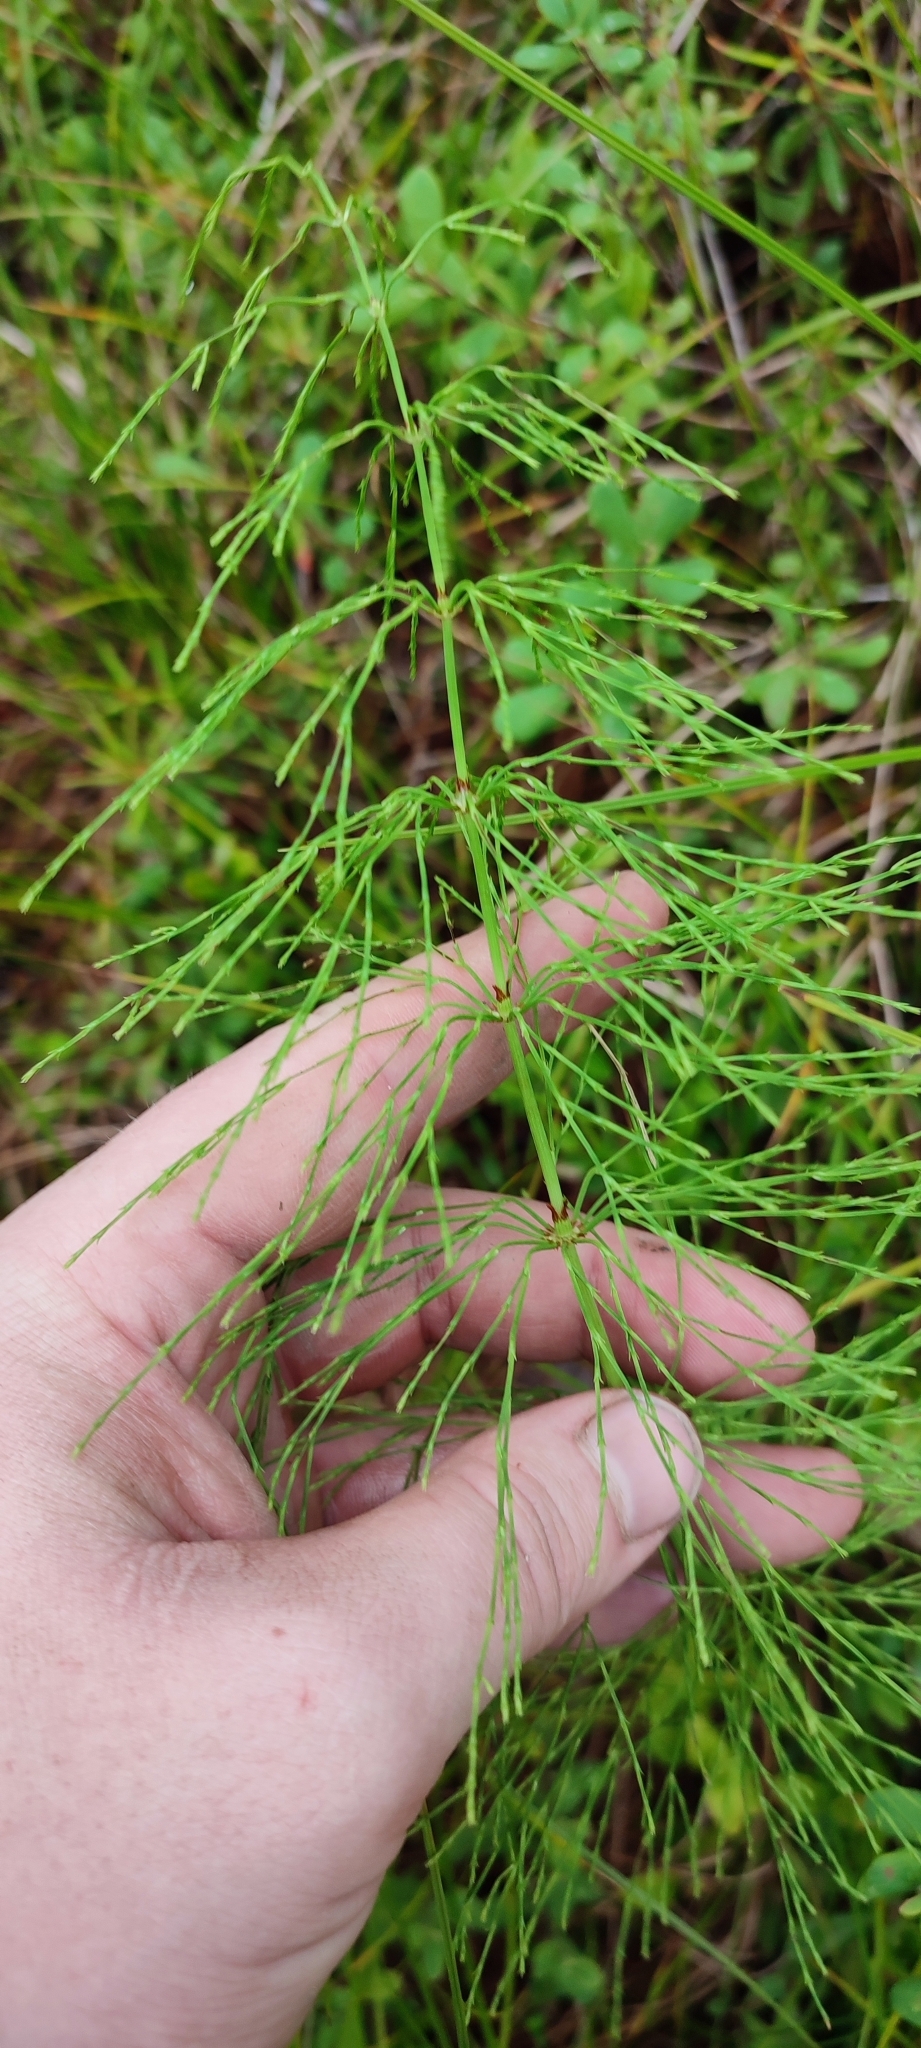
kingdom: Plantae
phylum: Tracheophyta
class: Polypodiopsida
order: Equisetales
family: Equisetaceae
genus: Equisetum
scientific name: Equisetum sylvaticum
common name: Wood horsetail
